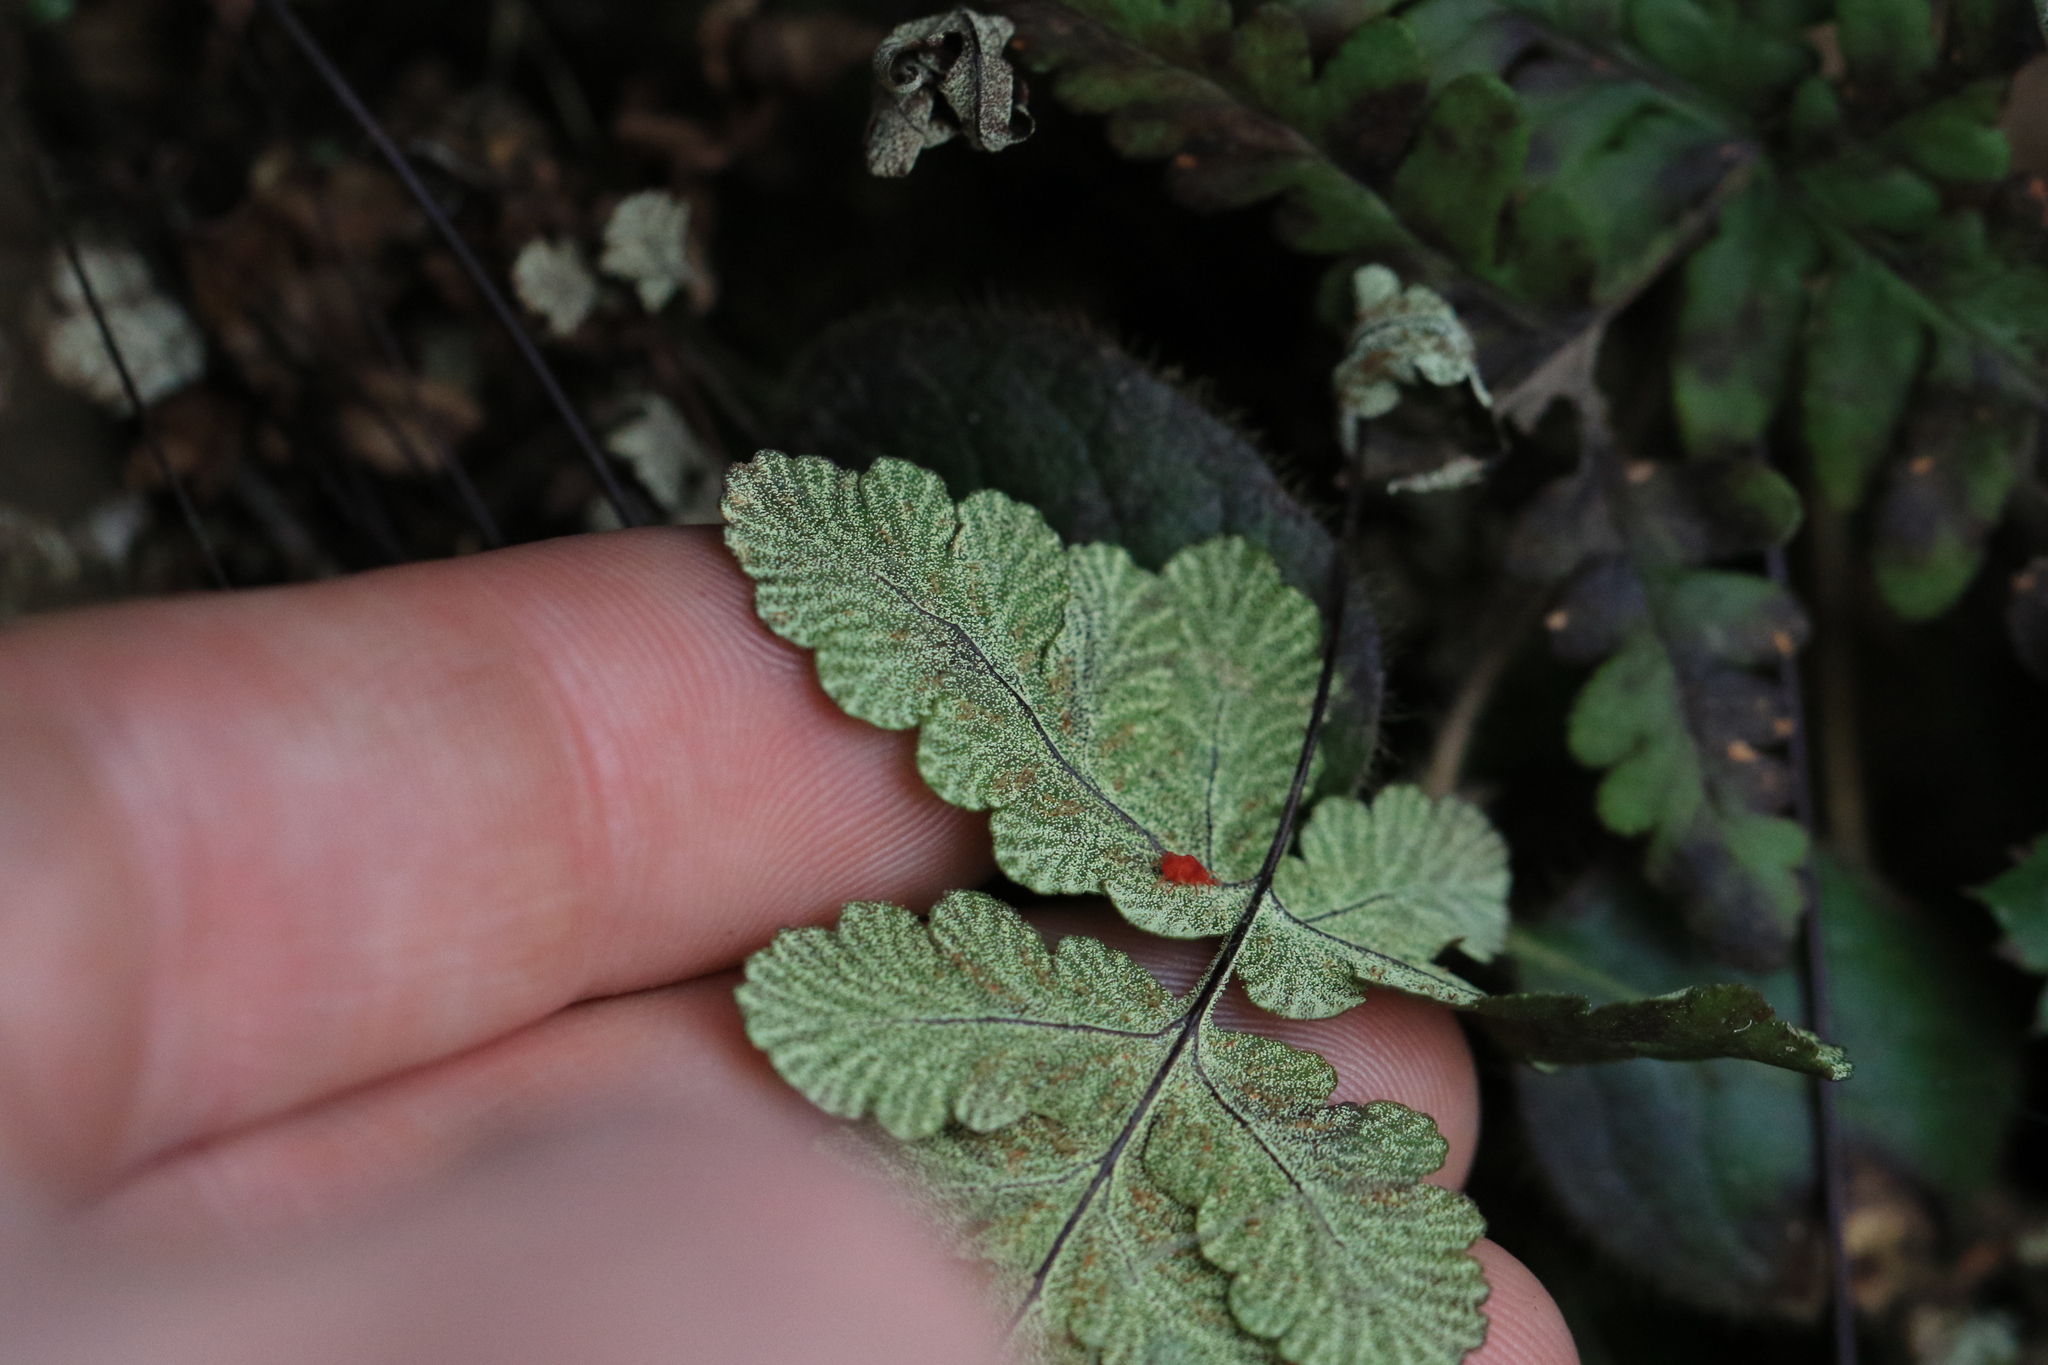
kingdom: Plantae
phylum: Tracheophyta
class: Polypodiopsida
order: Polypodiales
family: Pteridaceae
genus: Pentagramma
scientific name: Pentagramma triangularis
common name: Gold fern
